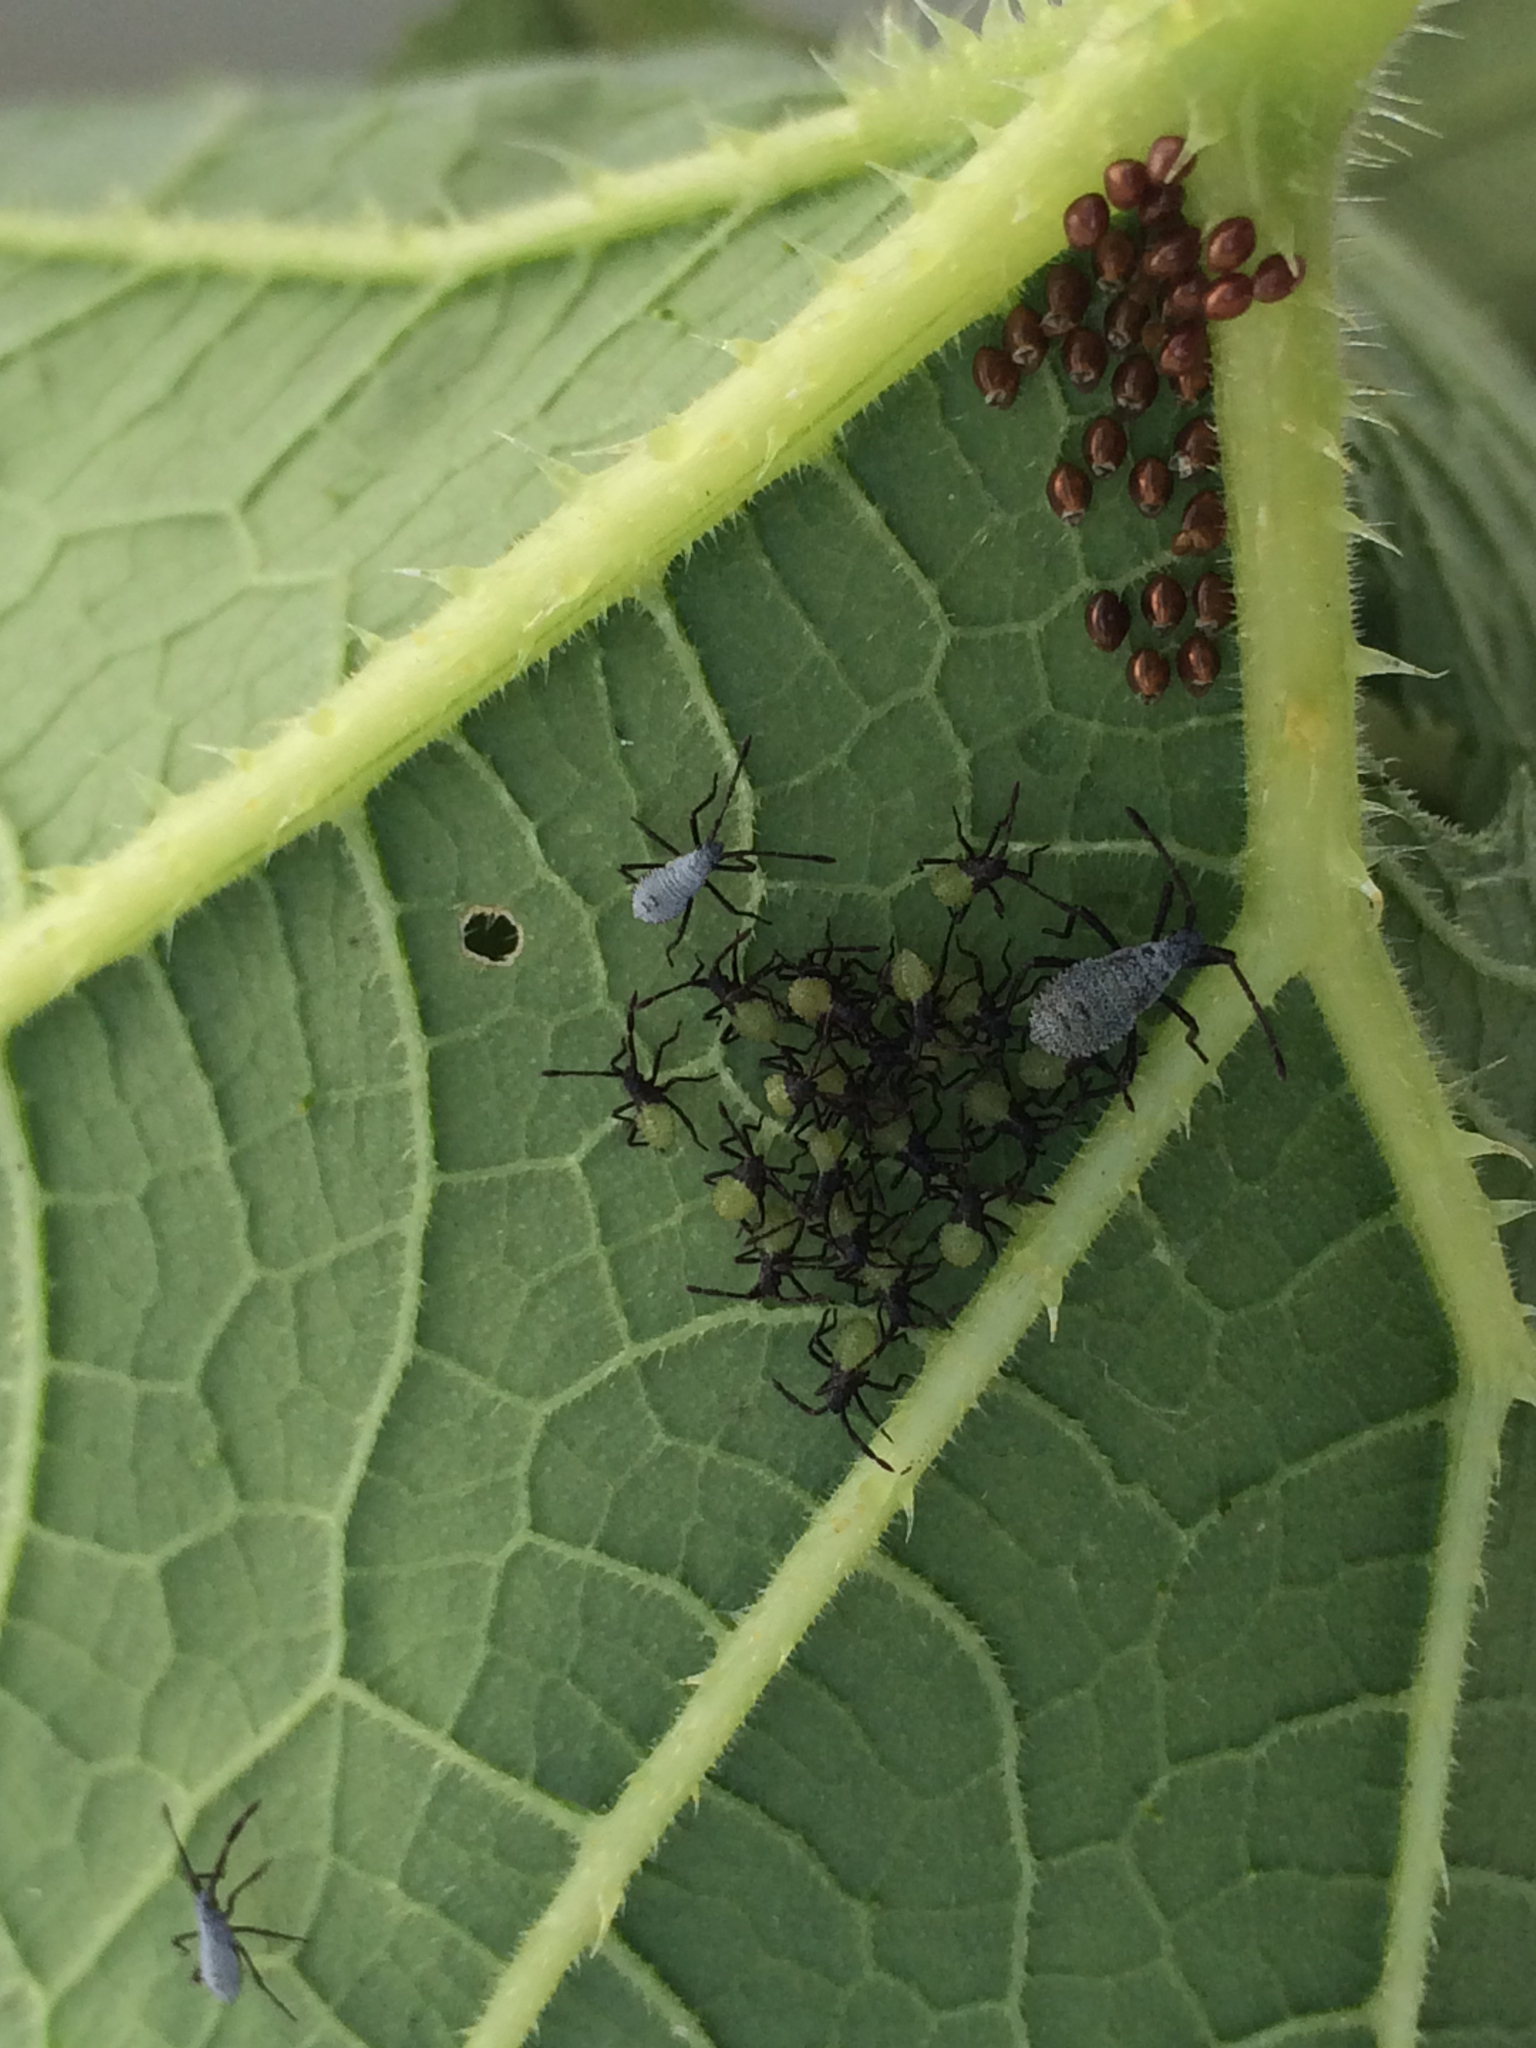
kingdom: Animalia
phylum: Arthropoda
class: Insecta
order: Hemiptera
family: Coreidae
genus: Anasa
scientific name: Anasa tristis
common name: Squash bug
